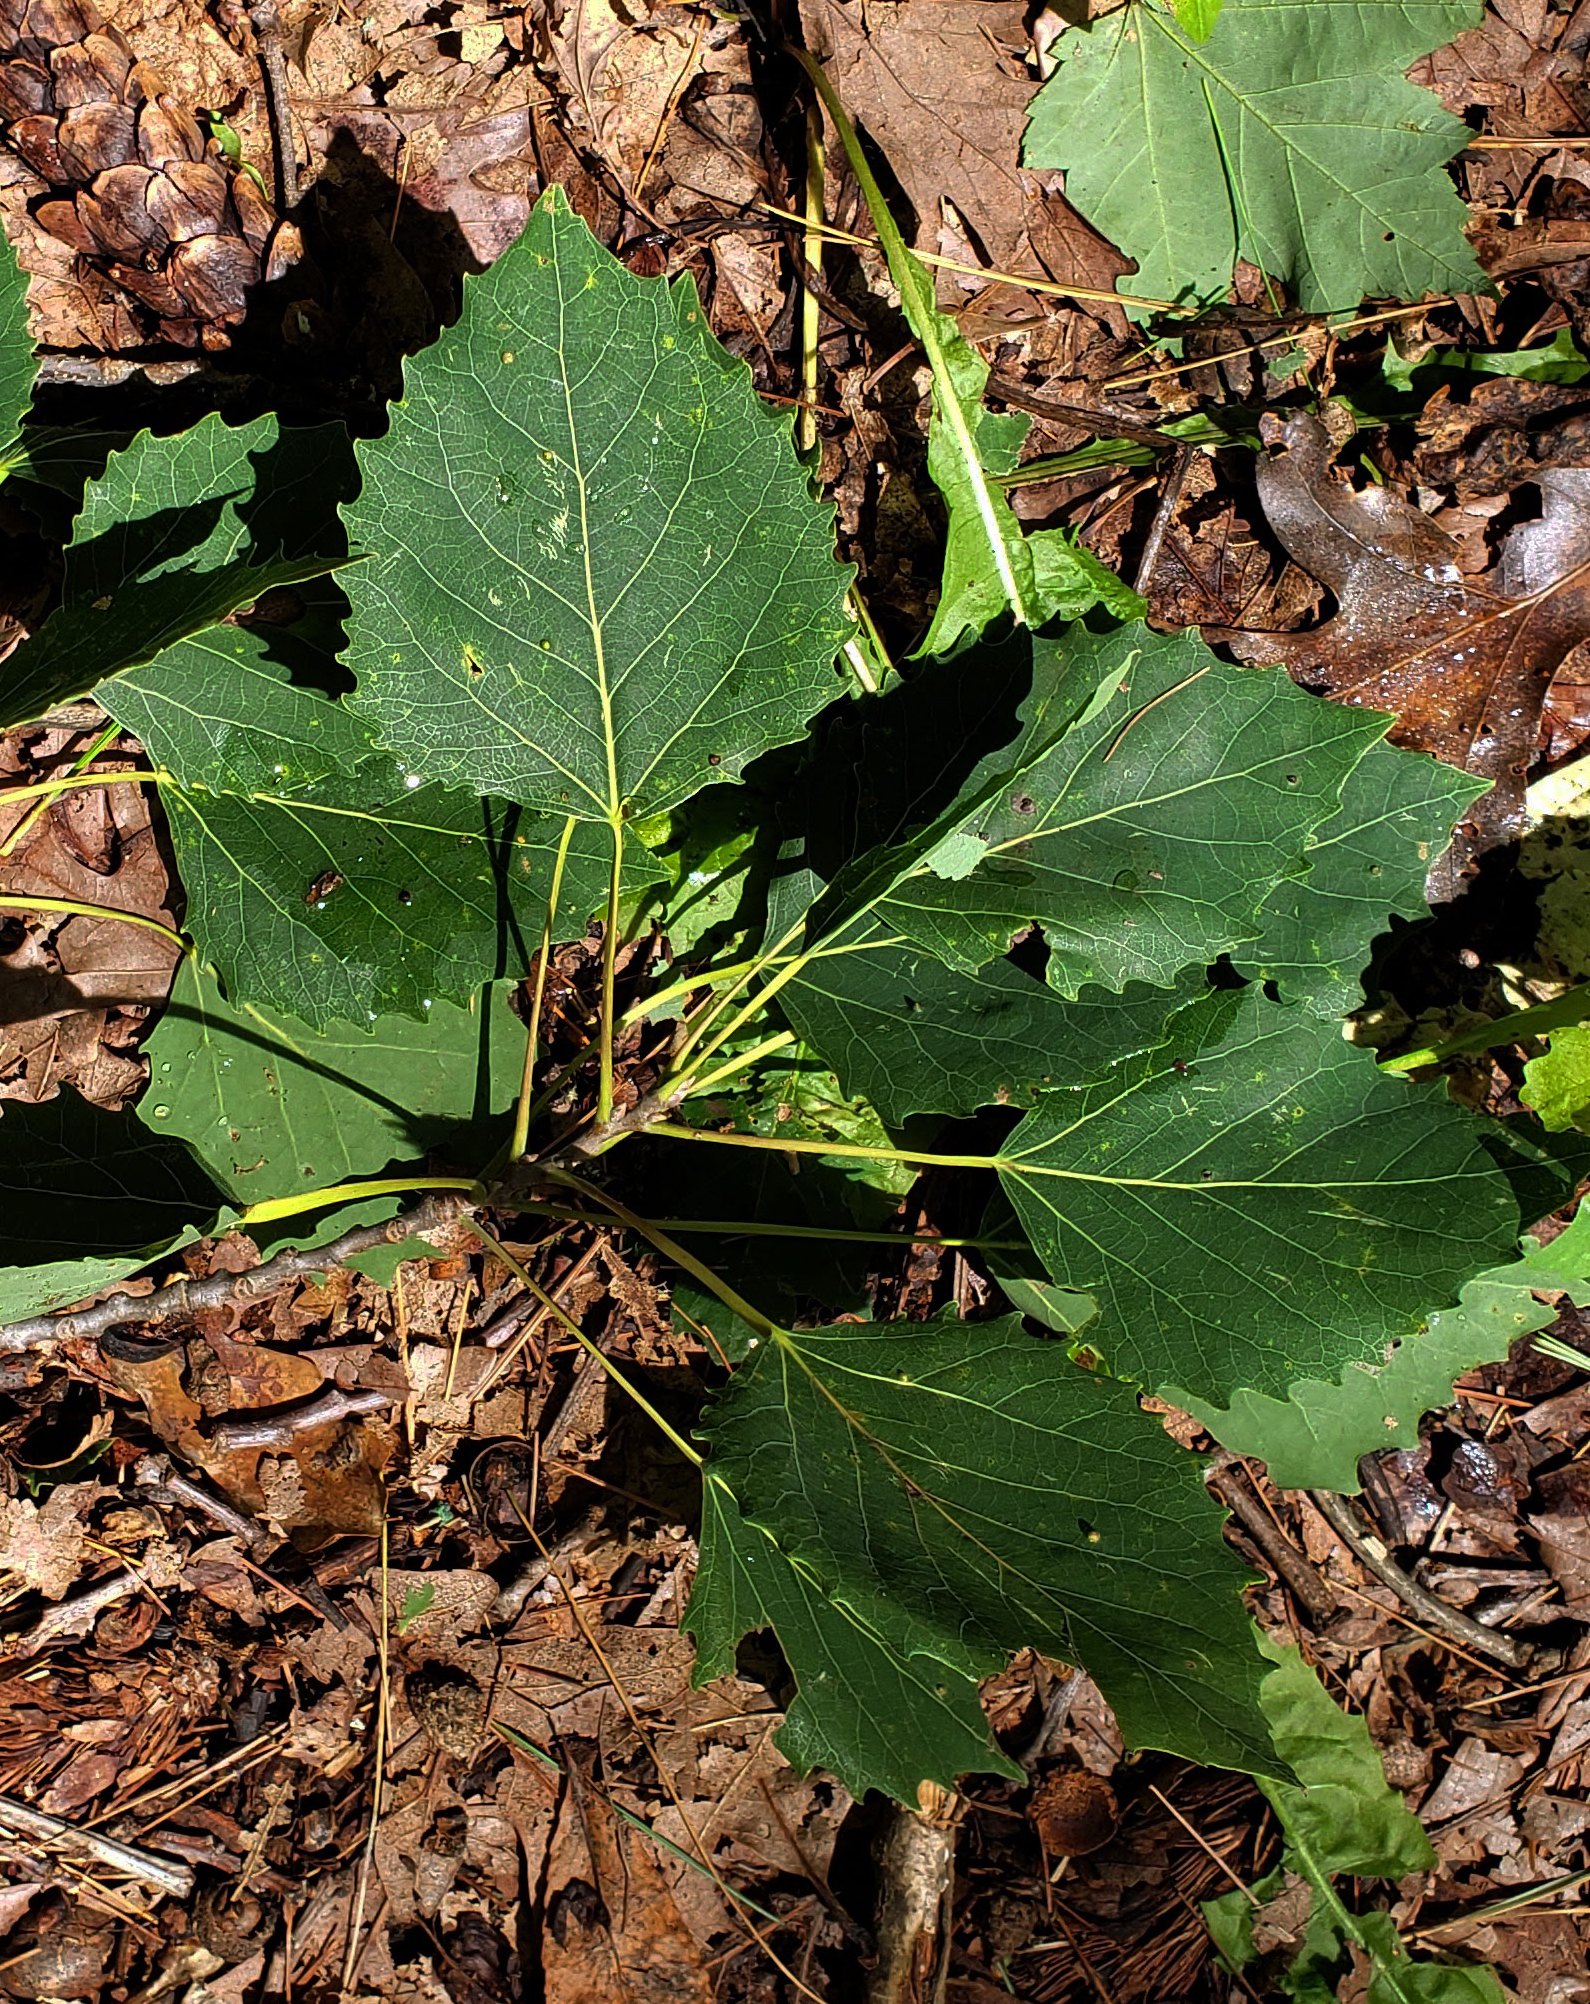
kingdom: Plantae
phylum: Tracheophyta
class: Magnoliopsida
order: Malpighiales
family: Salicaceae
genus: Populus
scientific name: Populus grandidentata
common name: Bigtooth aspen
